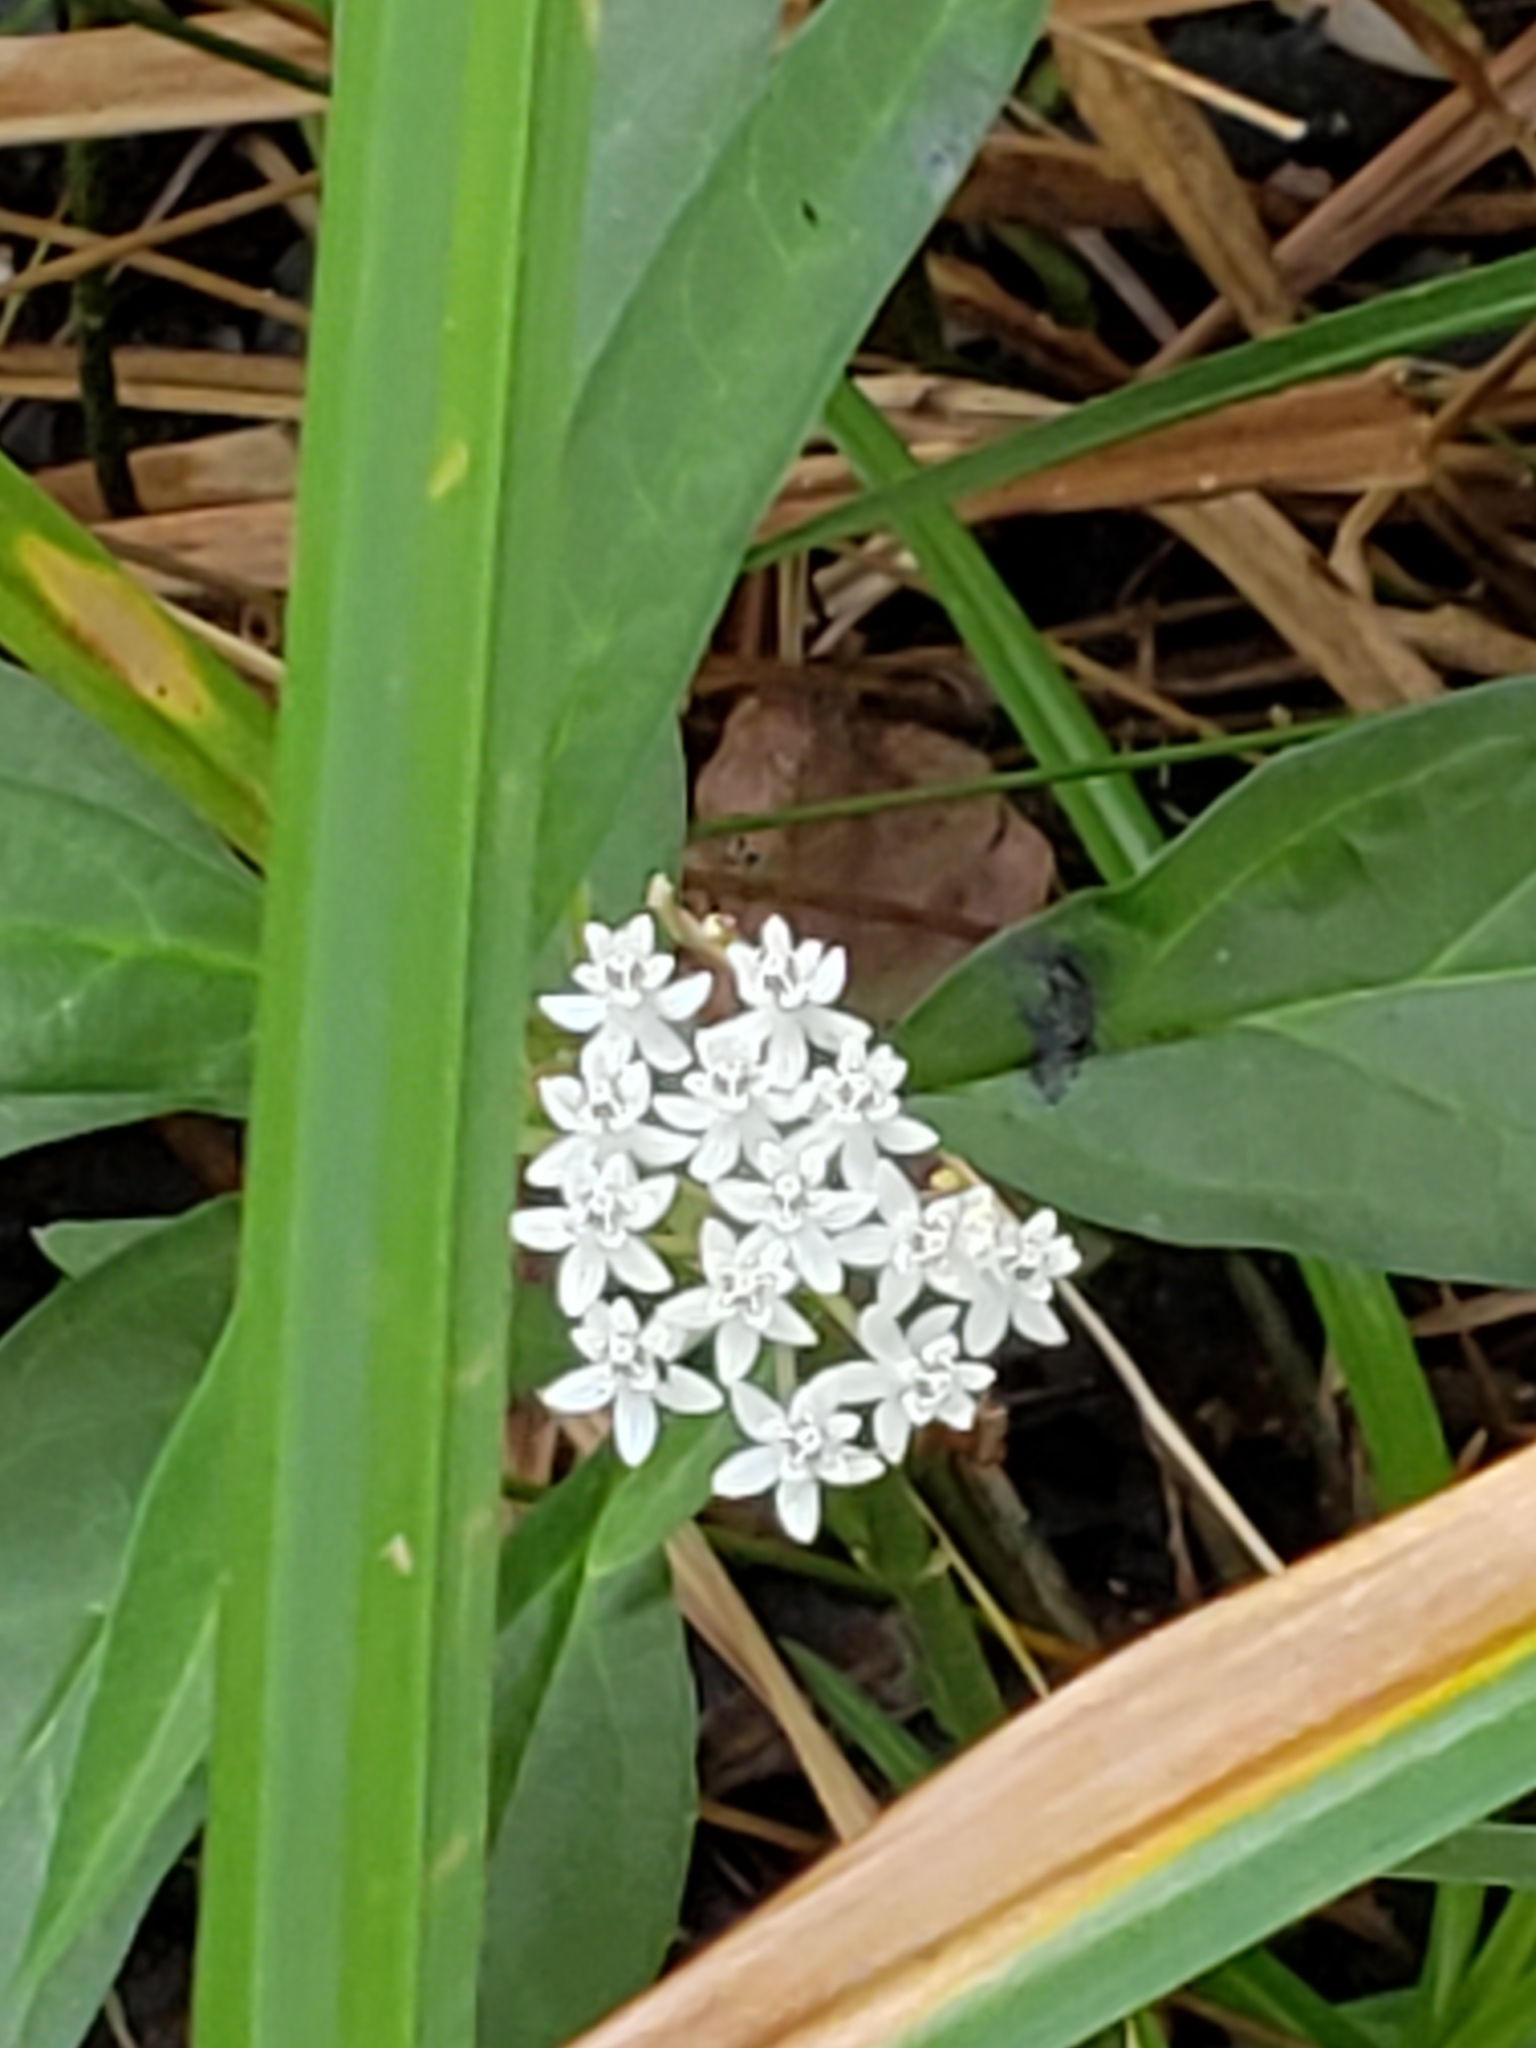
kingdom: Plantae
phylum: Tracheophyta
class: Magnoliopsida
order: Gentianales
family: Apocynaceae
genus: Asclepias
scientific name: Asclepias perennis
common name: Smooth-seed milkweed
